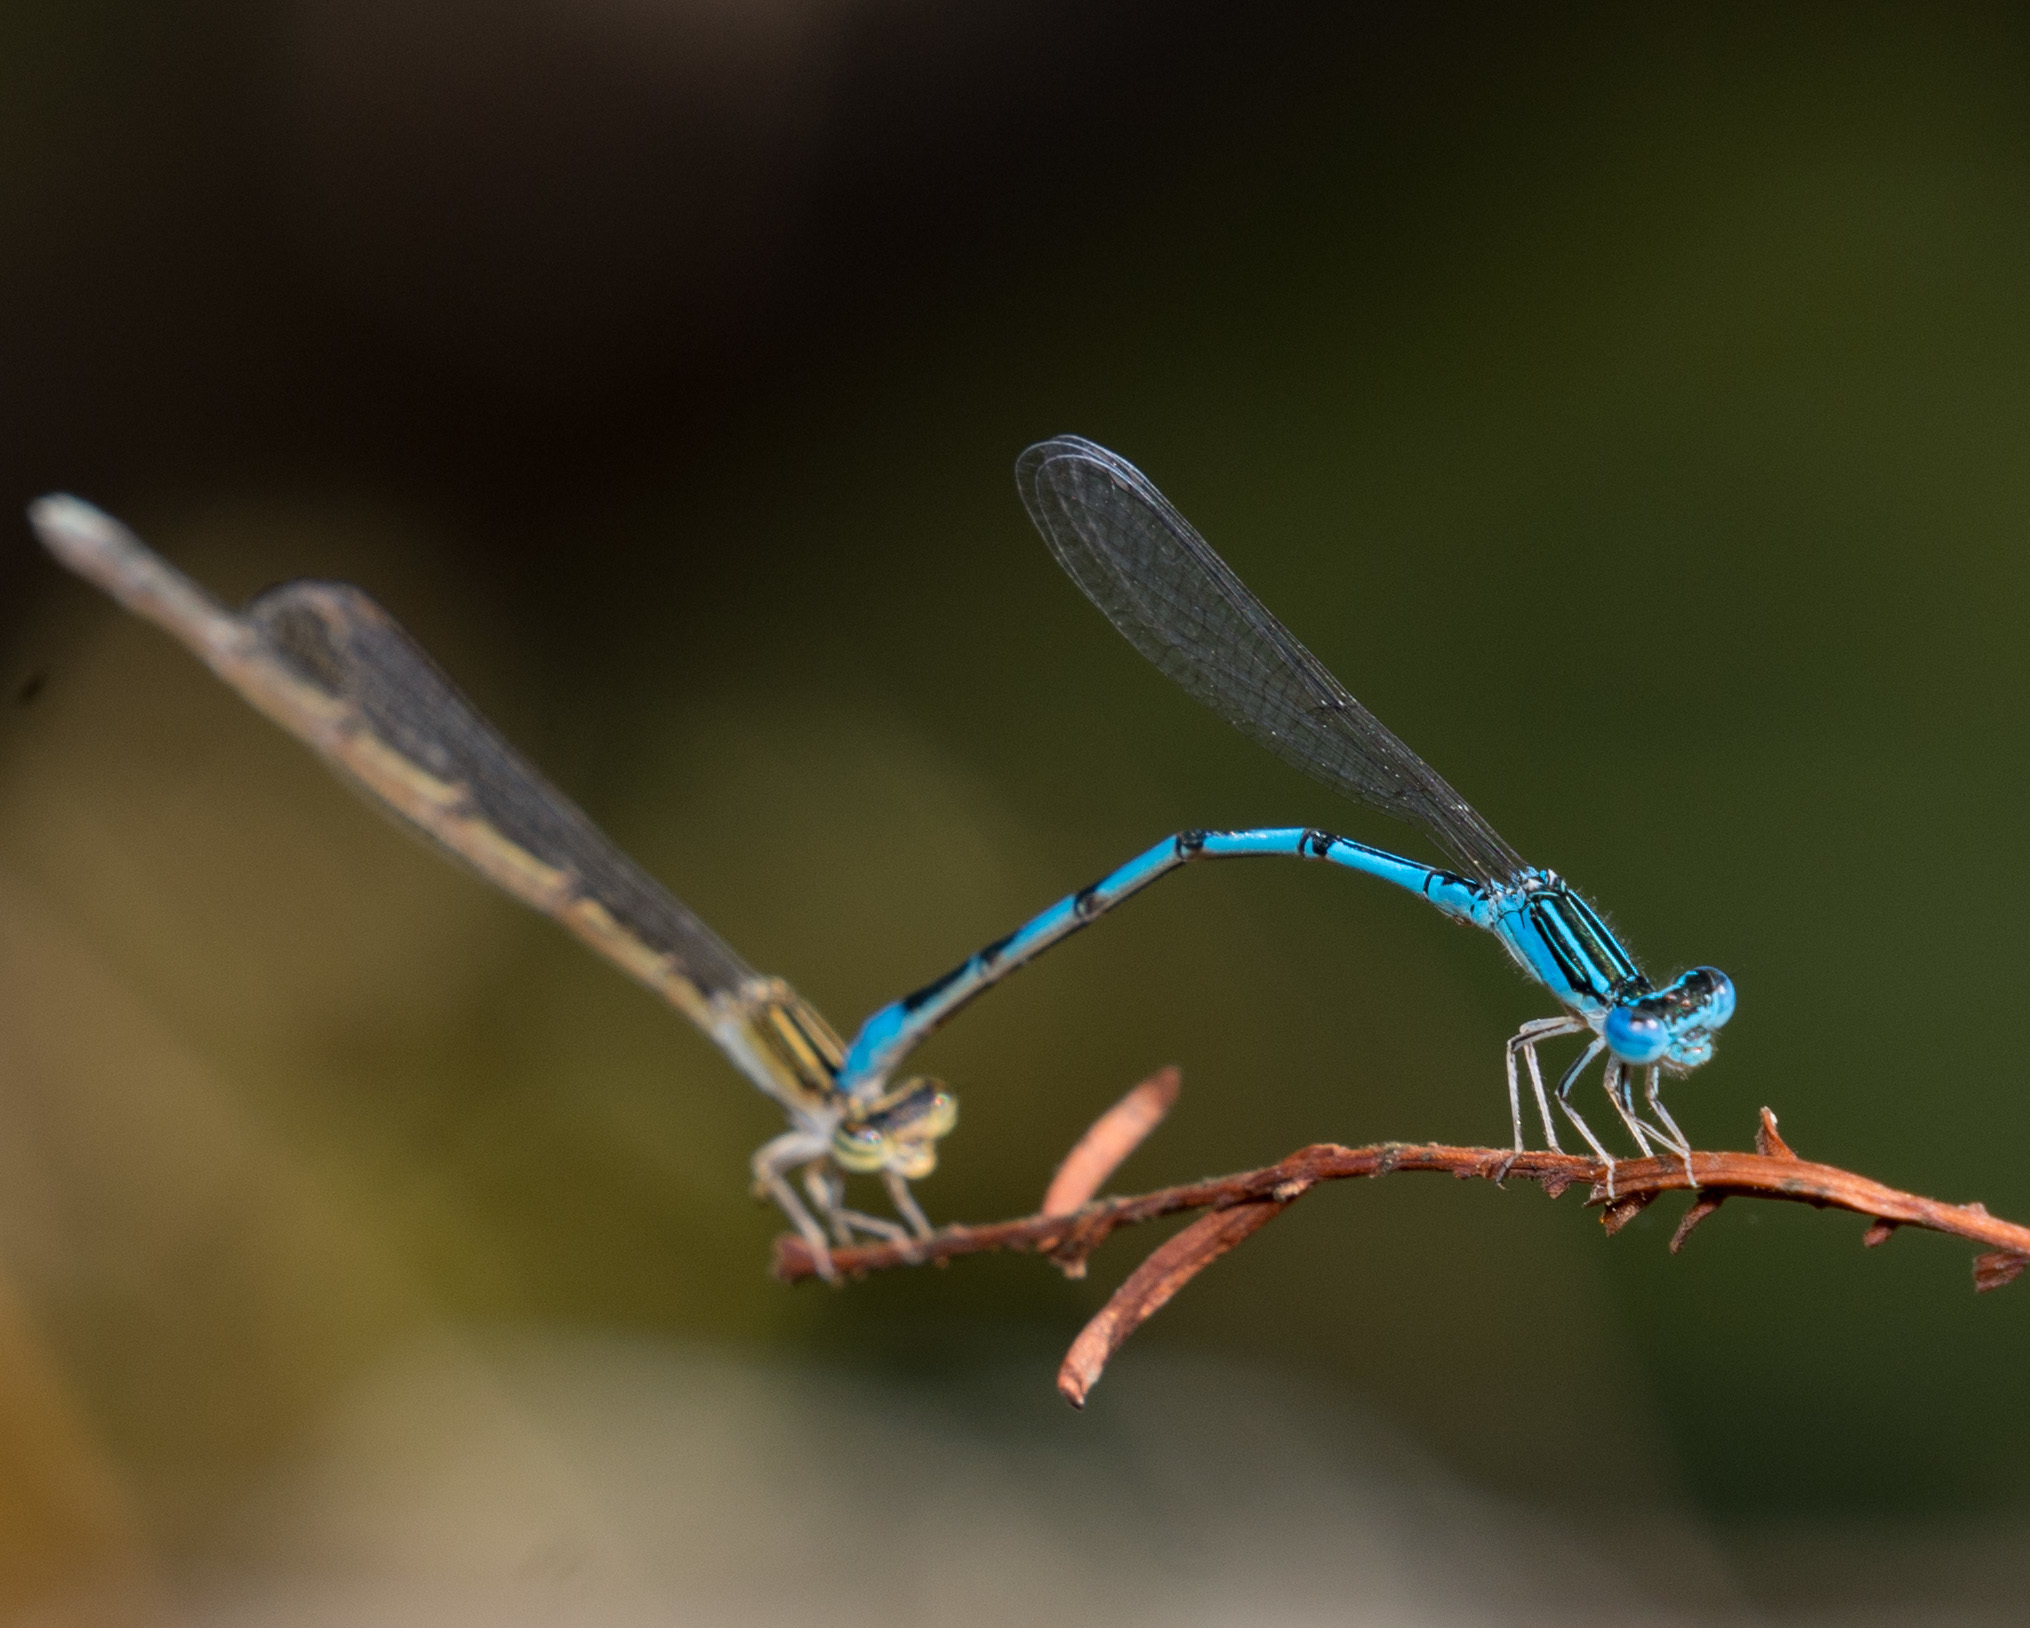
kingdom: Animalia
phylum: Arthropoda
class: Insecta
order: Odonata
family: Coenagrionidae
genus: Enallagma
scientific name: Enallagma basidens
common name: Double-striped bluet
